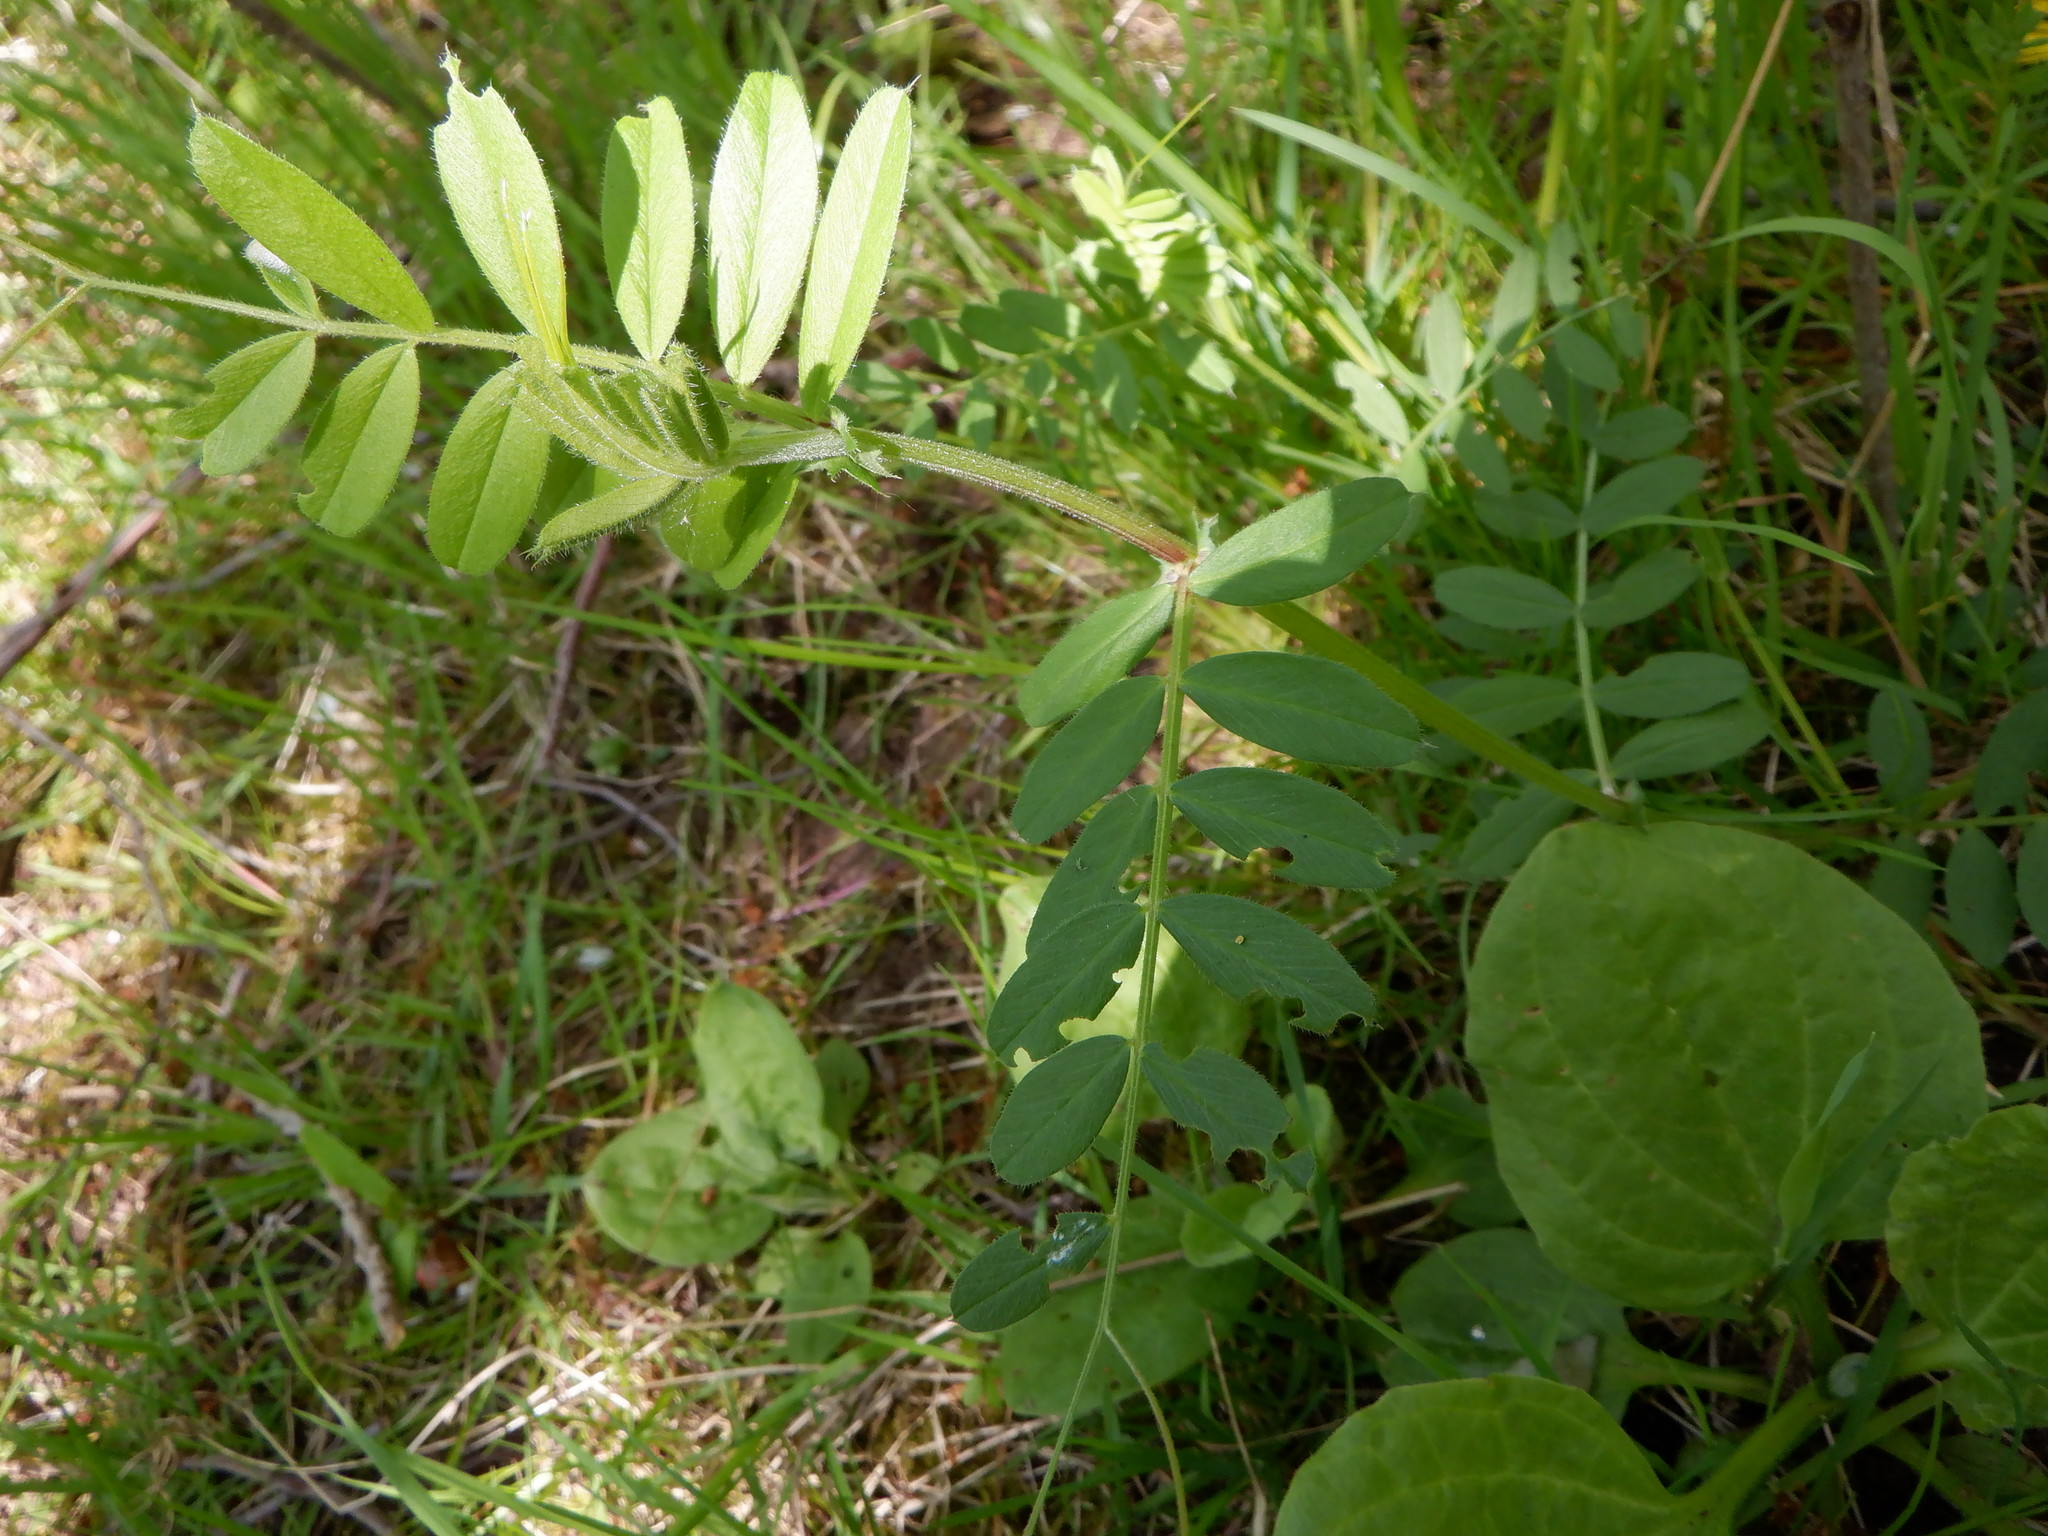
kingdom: Plantae
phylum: Tracheophyta
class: Magnoliopsida
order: Fabales
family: Fabaceae
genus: Vicia
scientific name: Vicia sativa
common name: Garden vetch
